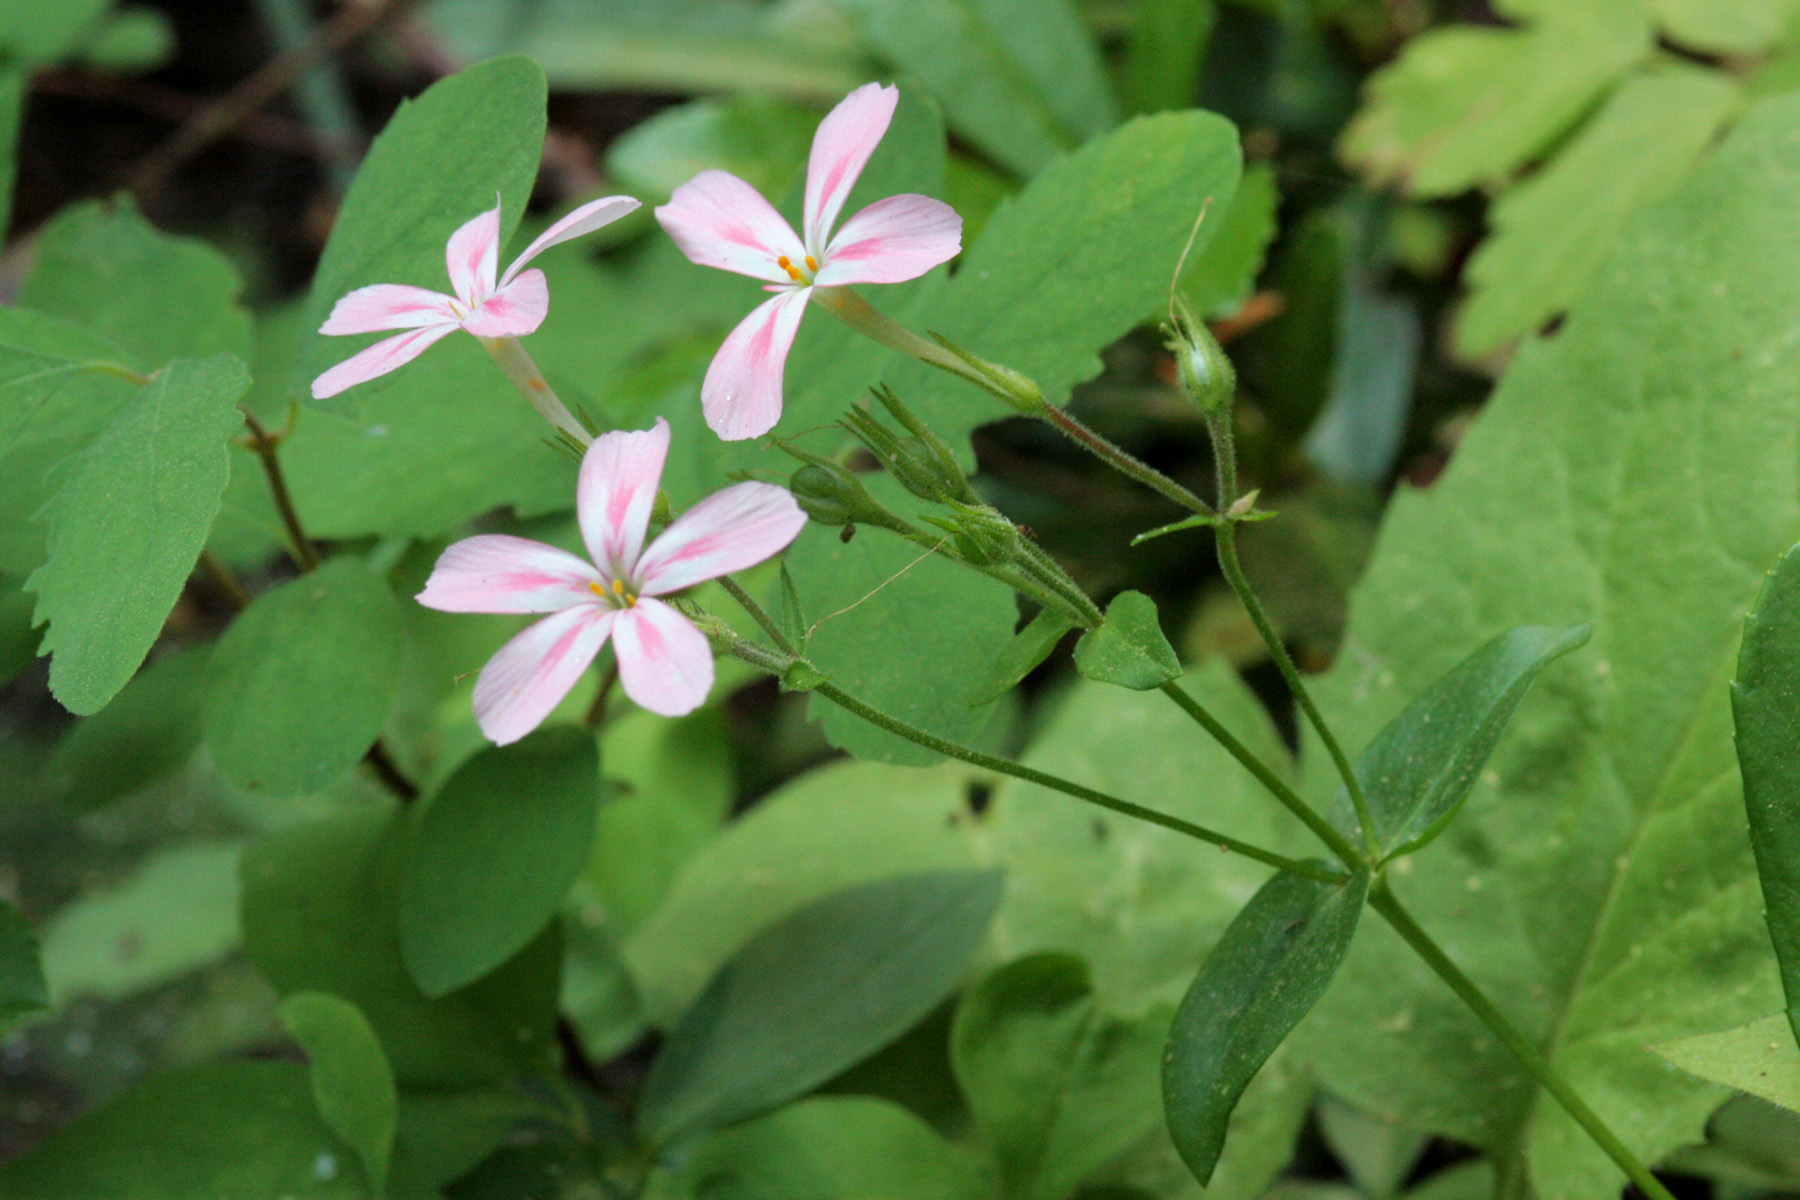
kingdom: Plantae
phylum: Tracheophyta
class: Magnoliopsida
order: Ericales
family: Polemoniaceae
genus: Phlox
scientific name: Phlox adsurgens
